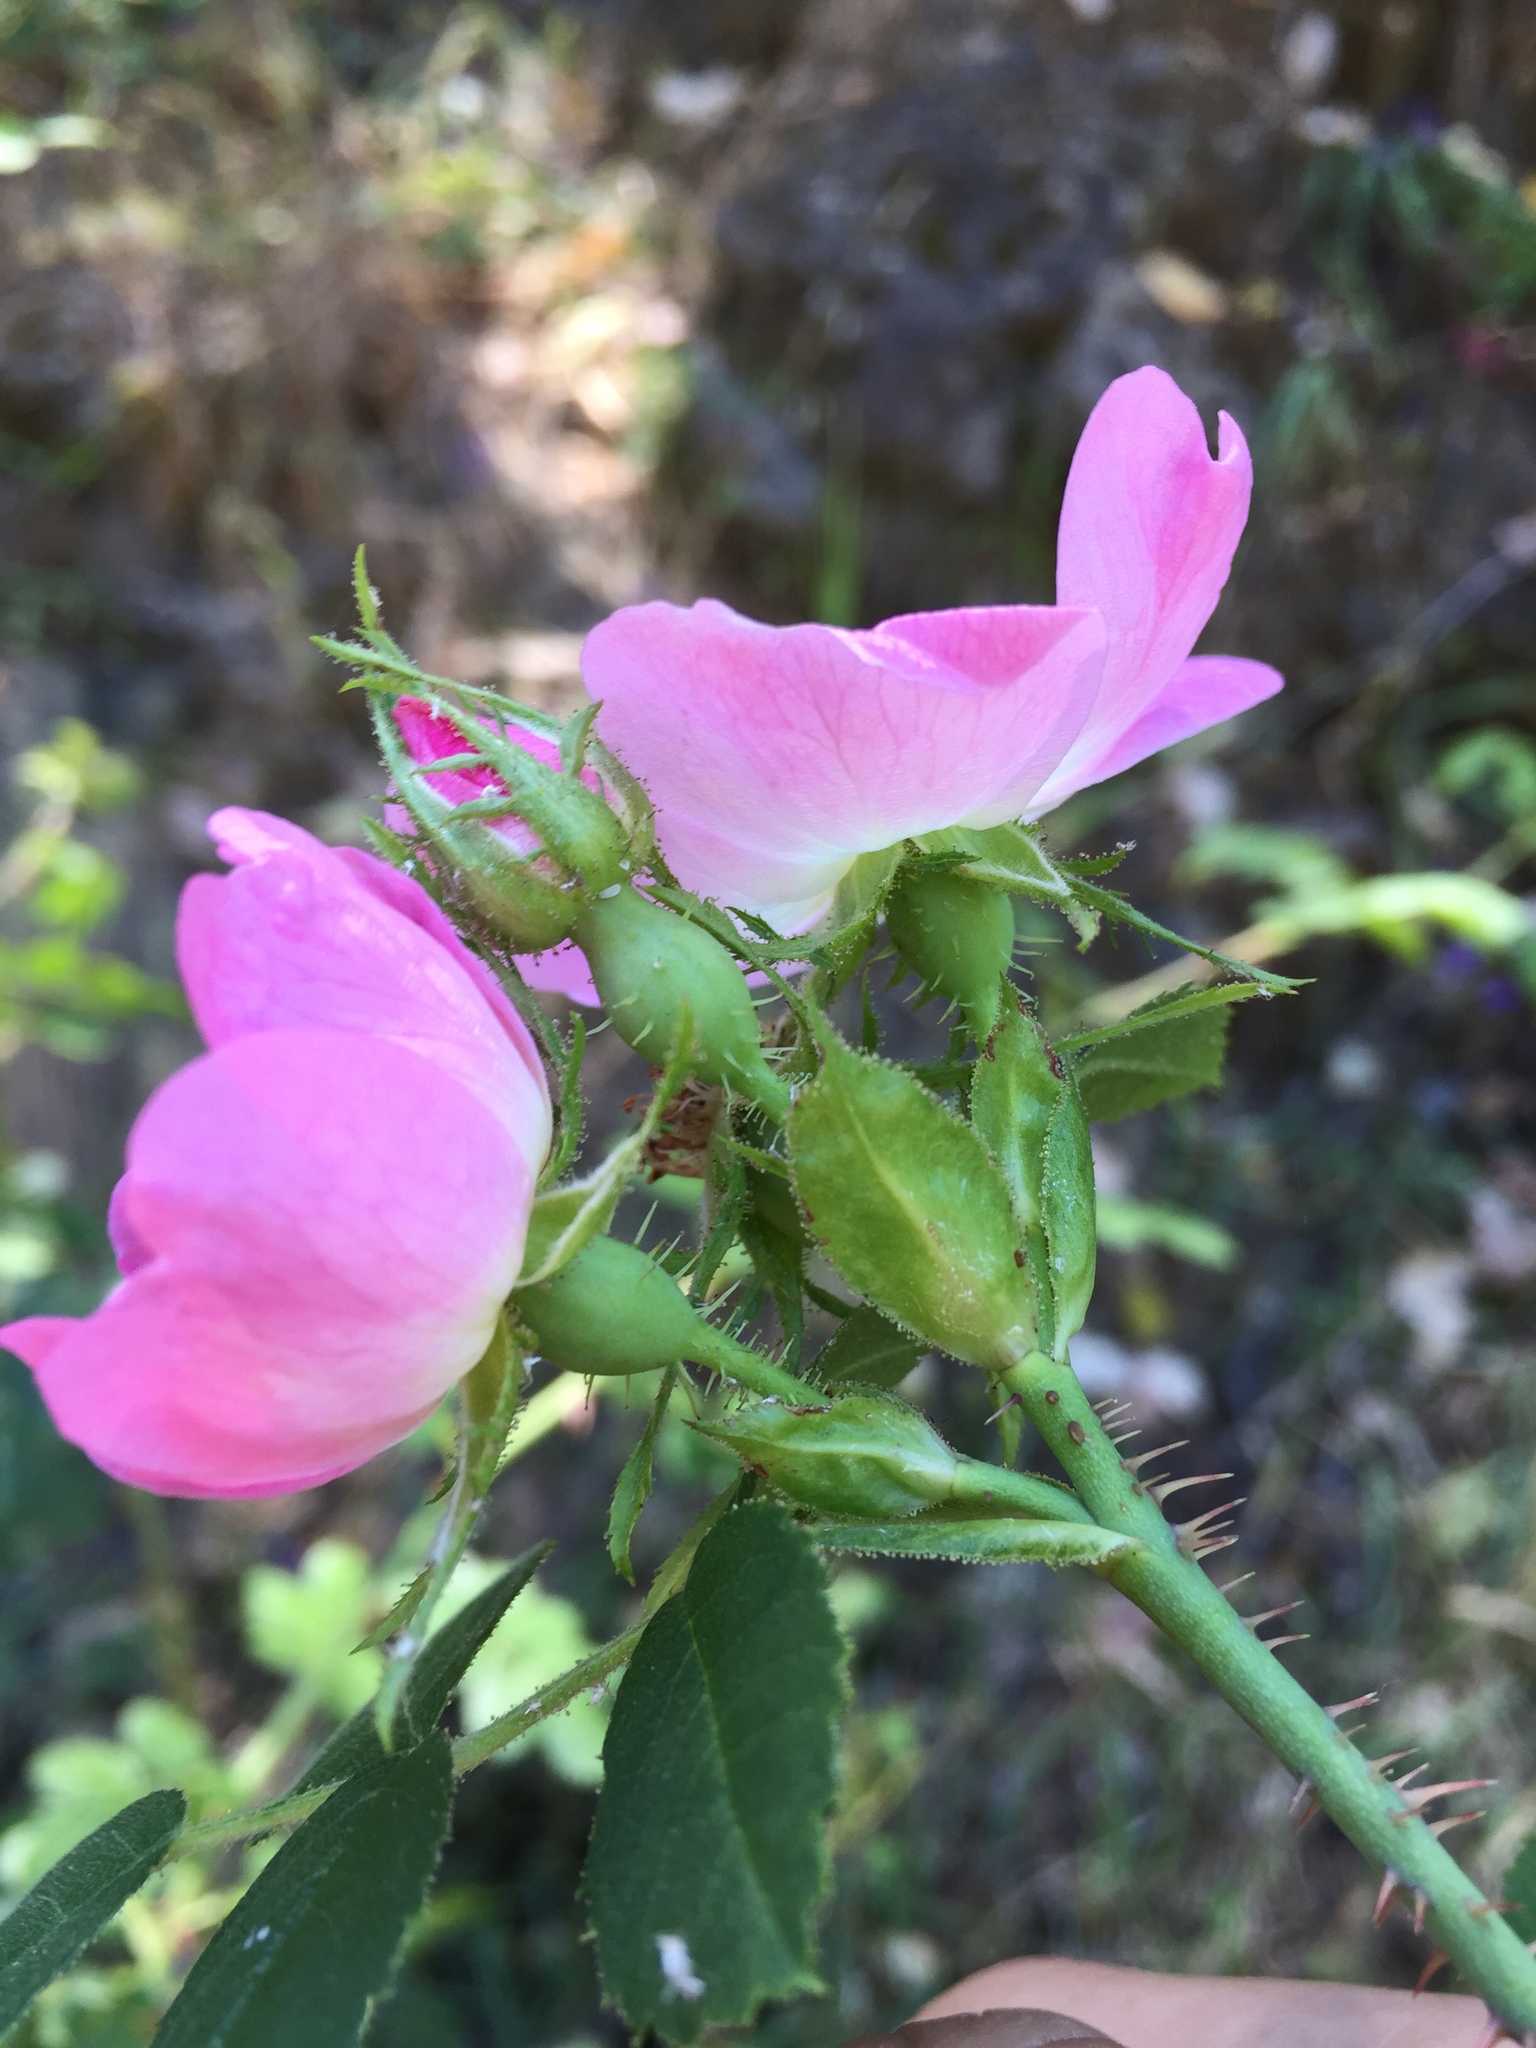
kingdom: Plantae
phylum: Tracheophyta
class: Magnoliopsida
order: Rosales
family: Rosaceae
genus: Rosa
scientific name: Rosa rubiginosa
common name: Sweet-briar
